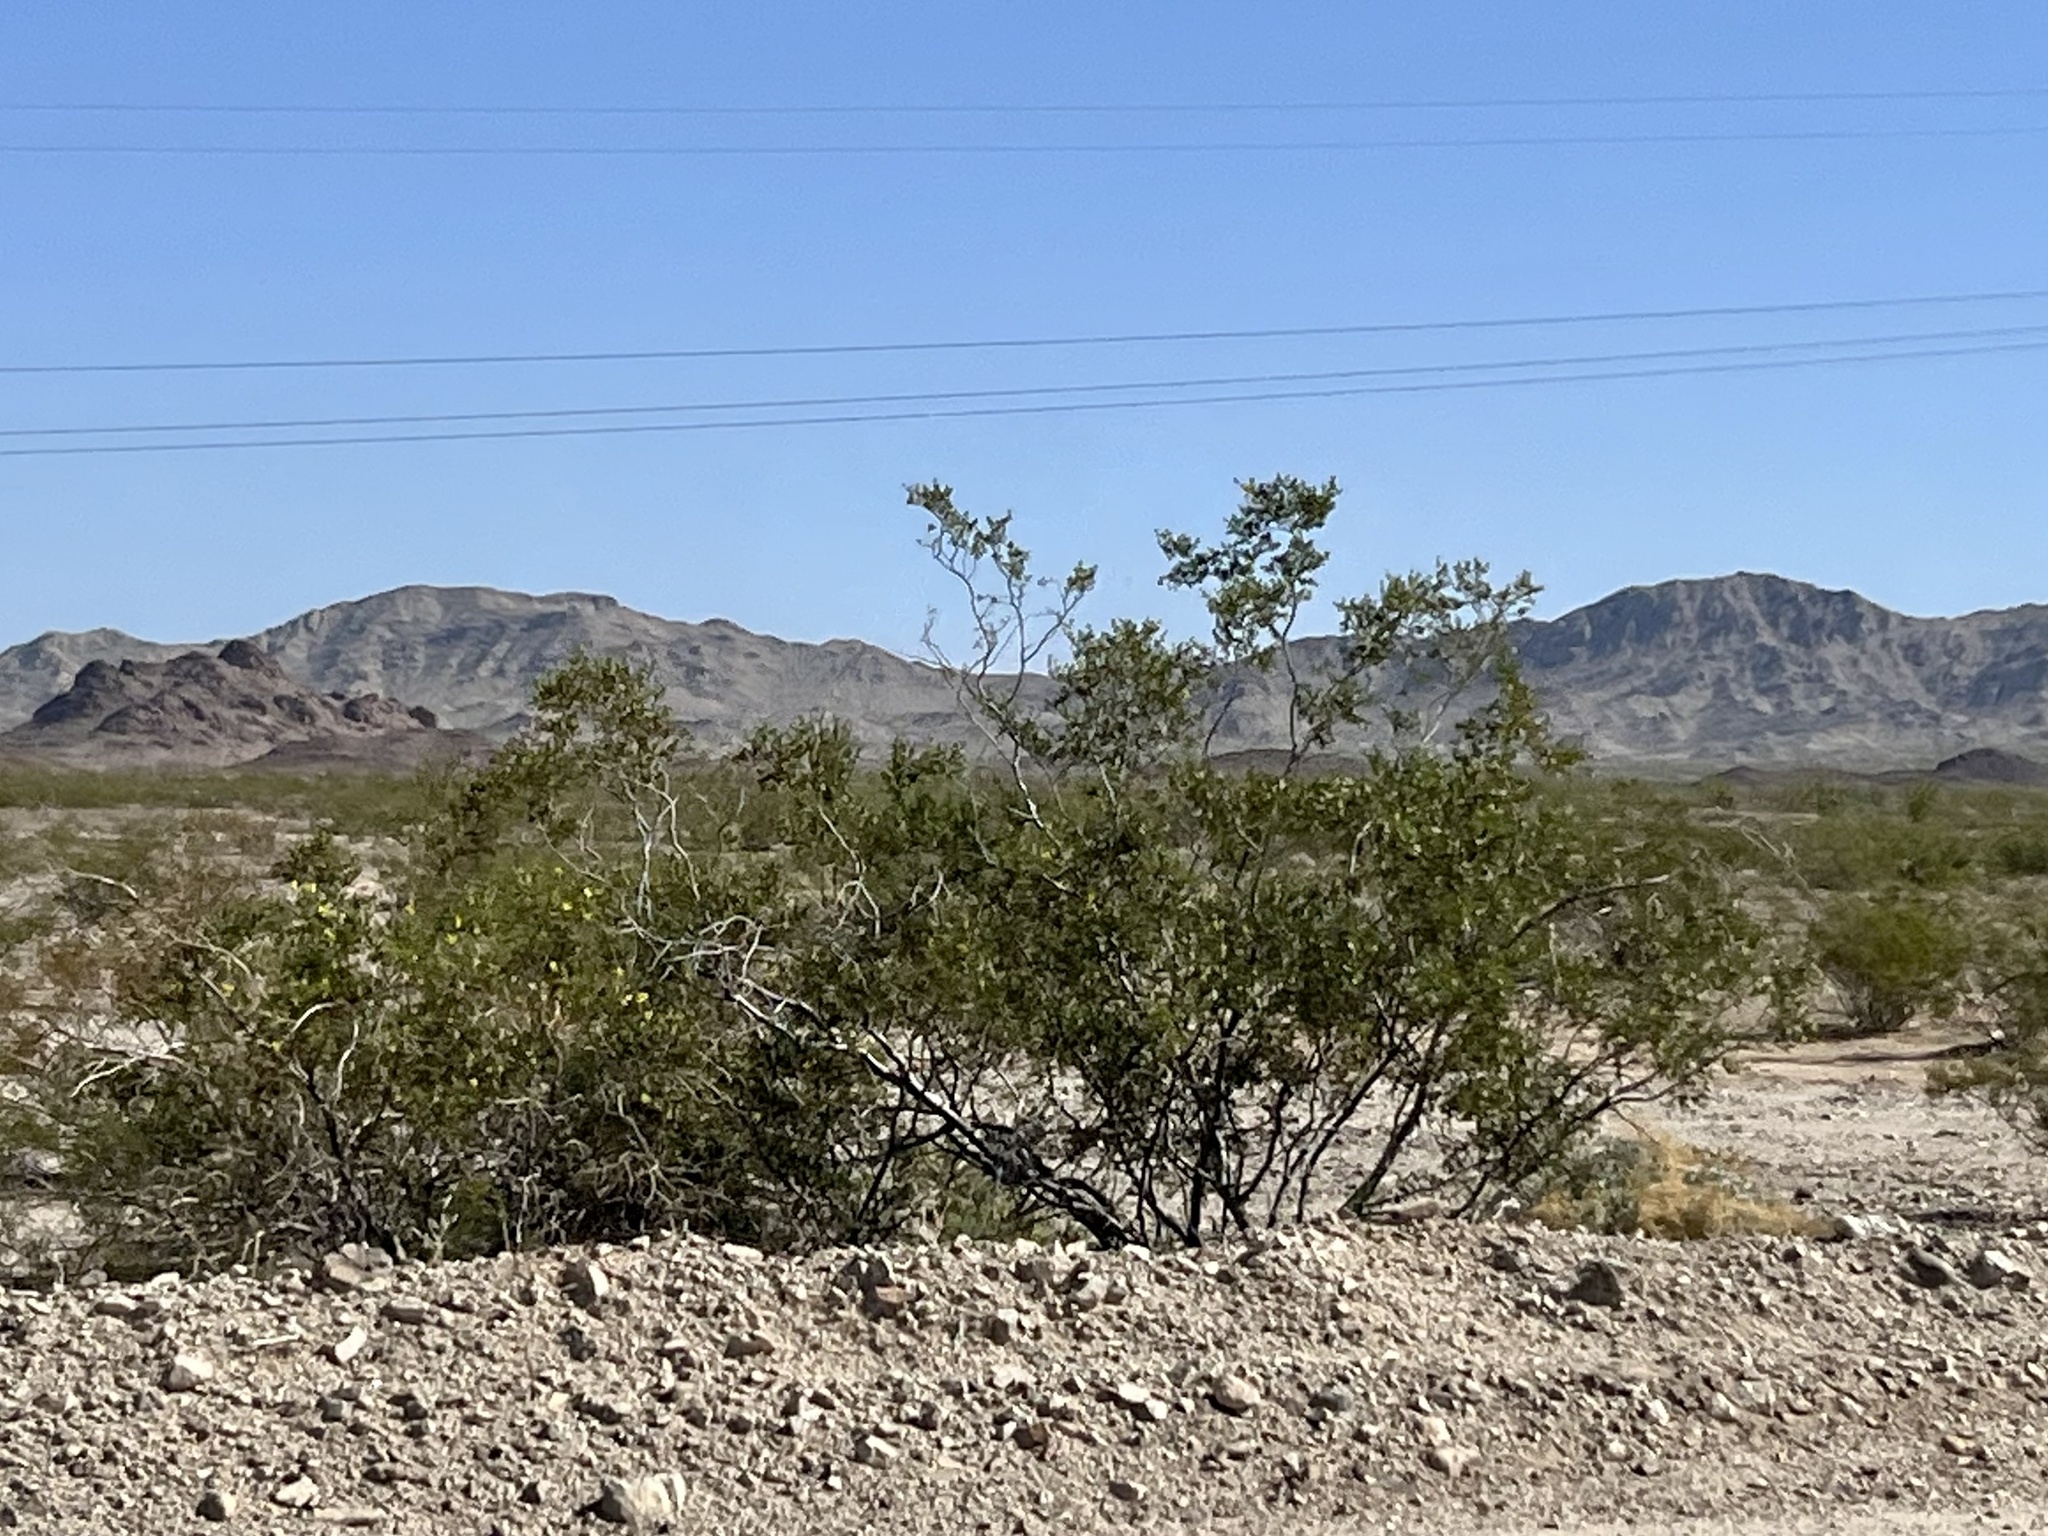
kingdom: Plantae
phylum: Tracheophyta
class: Magnoliopsida
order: Zygophyllales
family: Zygophyllaceae
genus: Larrea
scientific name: Larrea tridentata
